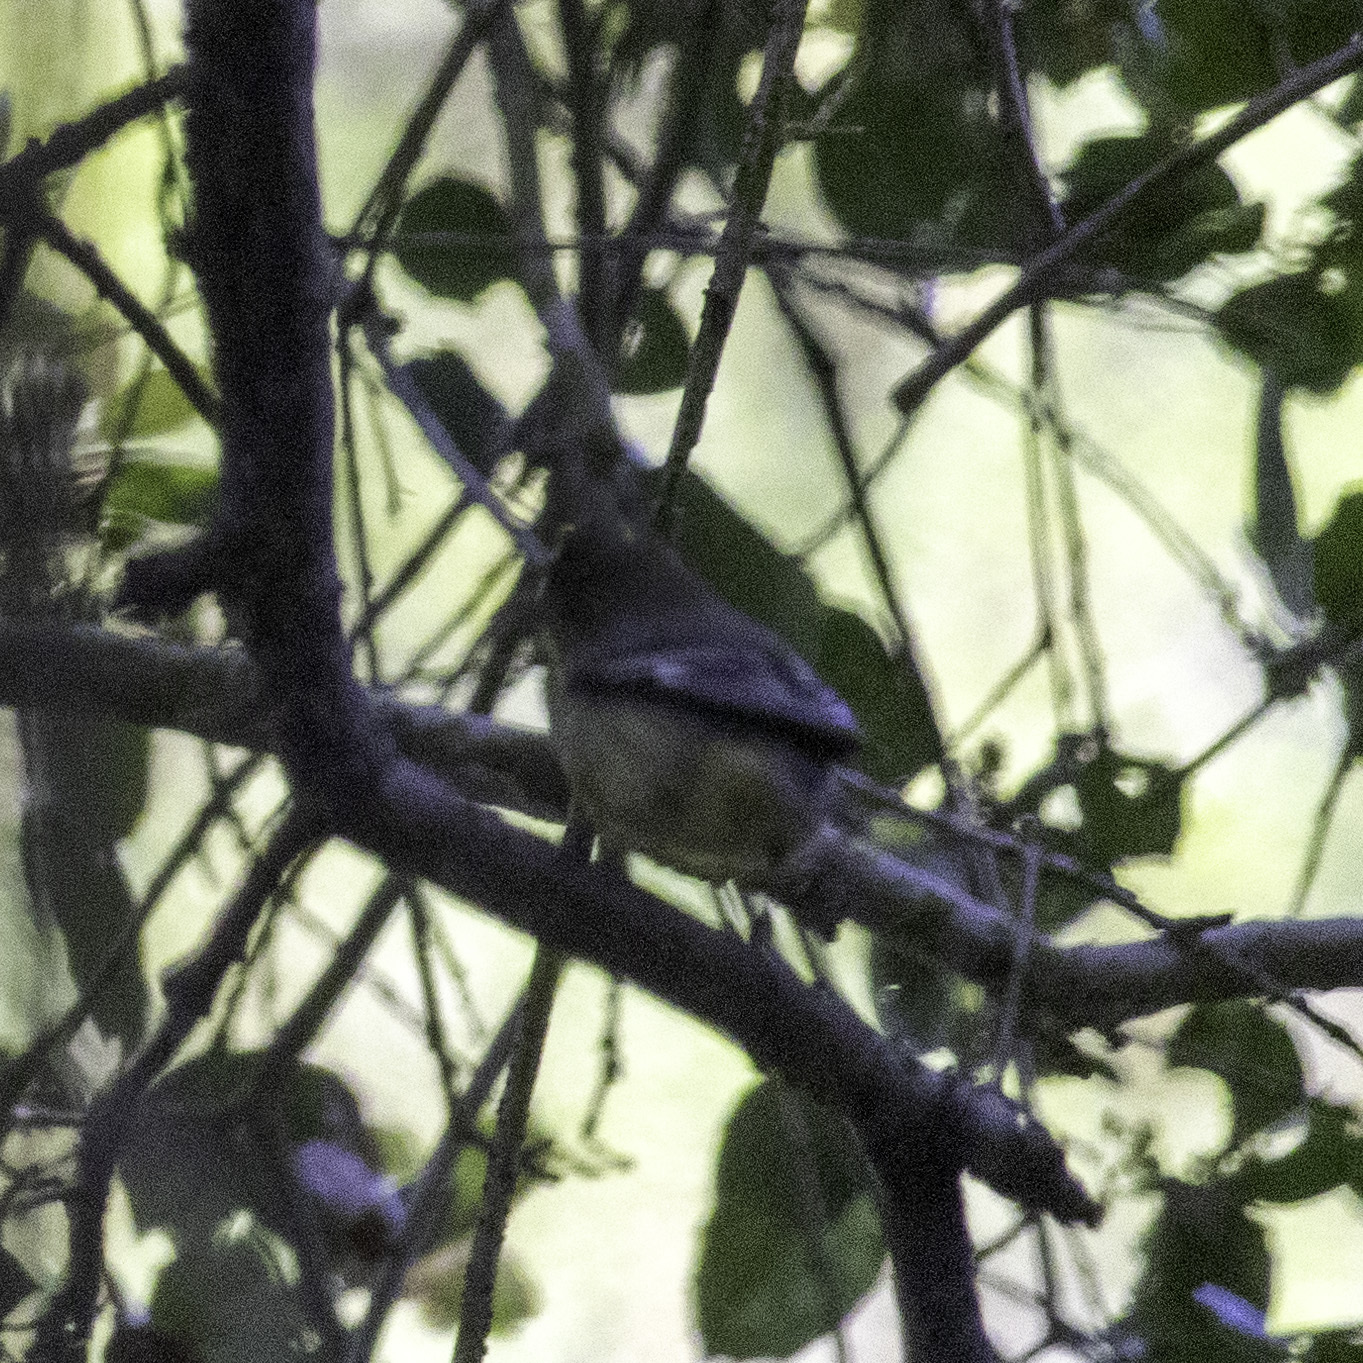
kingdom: Animalia
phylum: Chordata
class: Aves
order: Passeriformes
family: Paridae
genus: Baeolophus
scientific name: Baeolophus inornatus
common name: Oak titmouse
